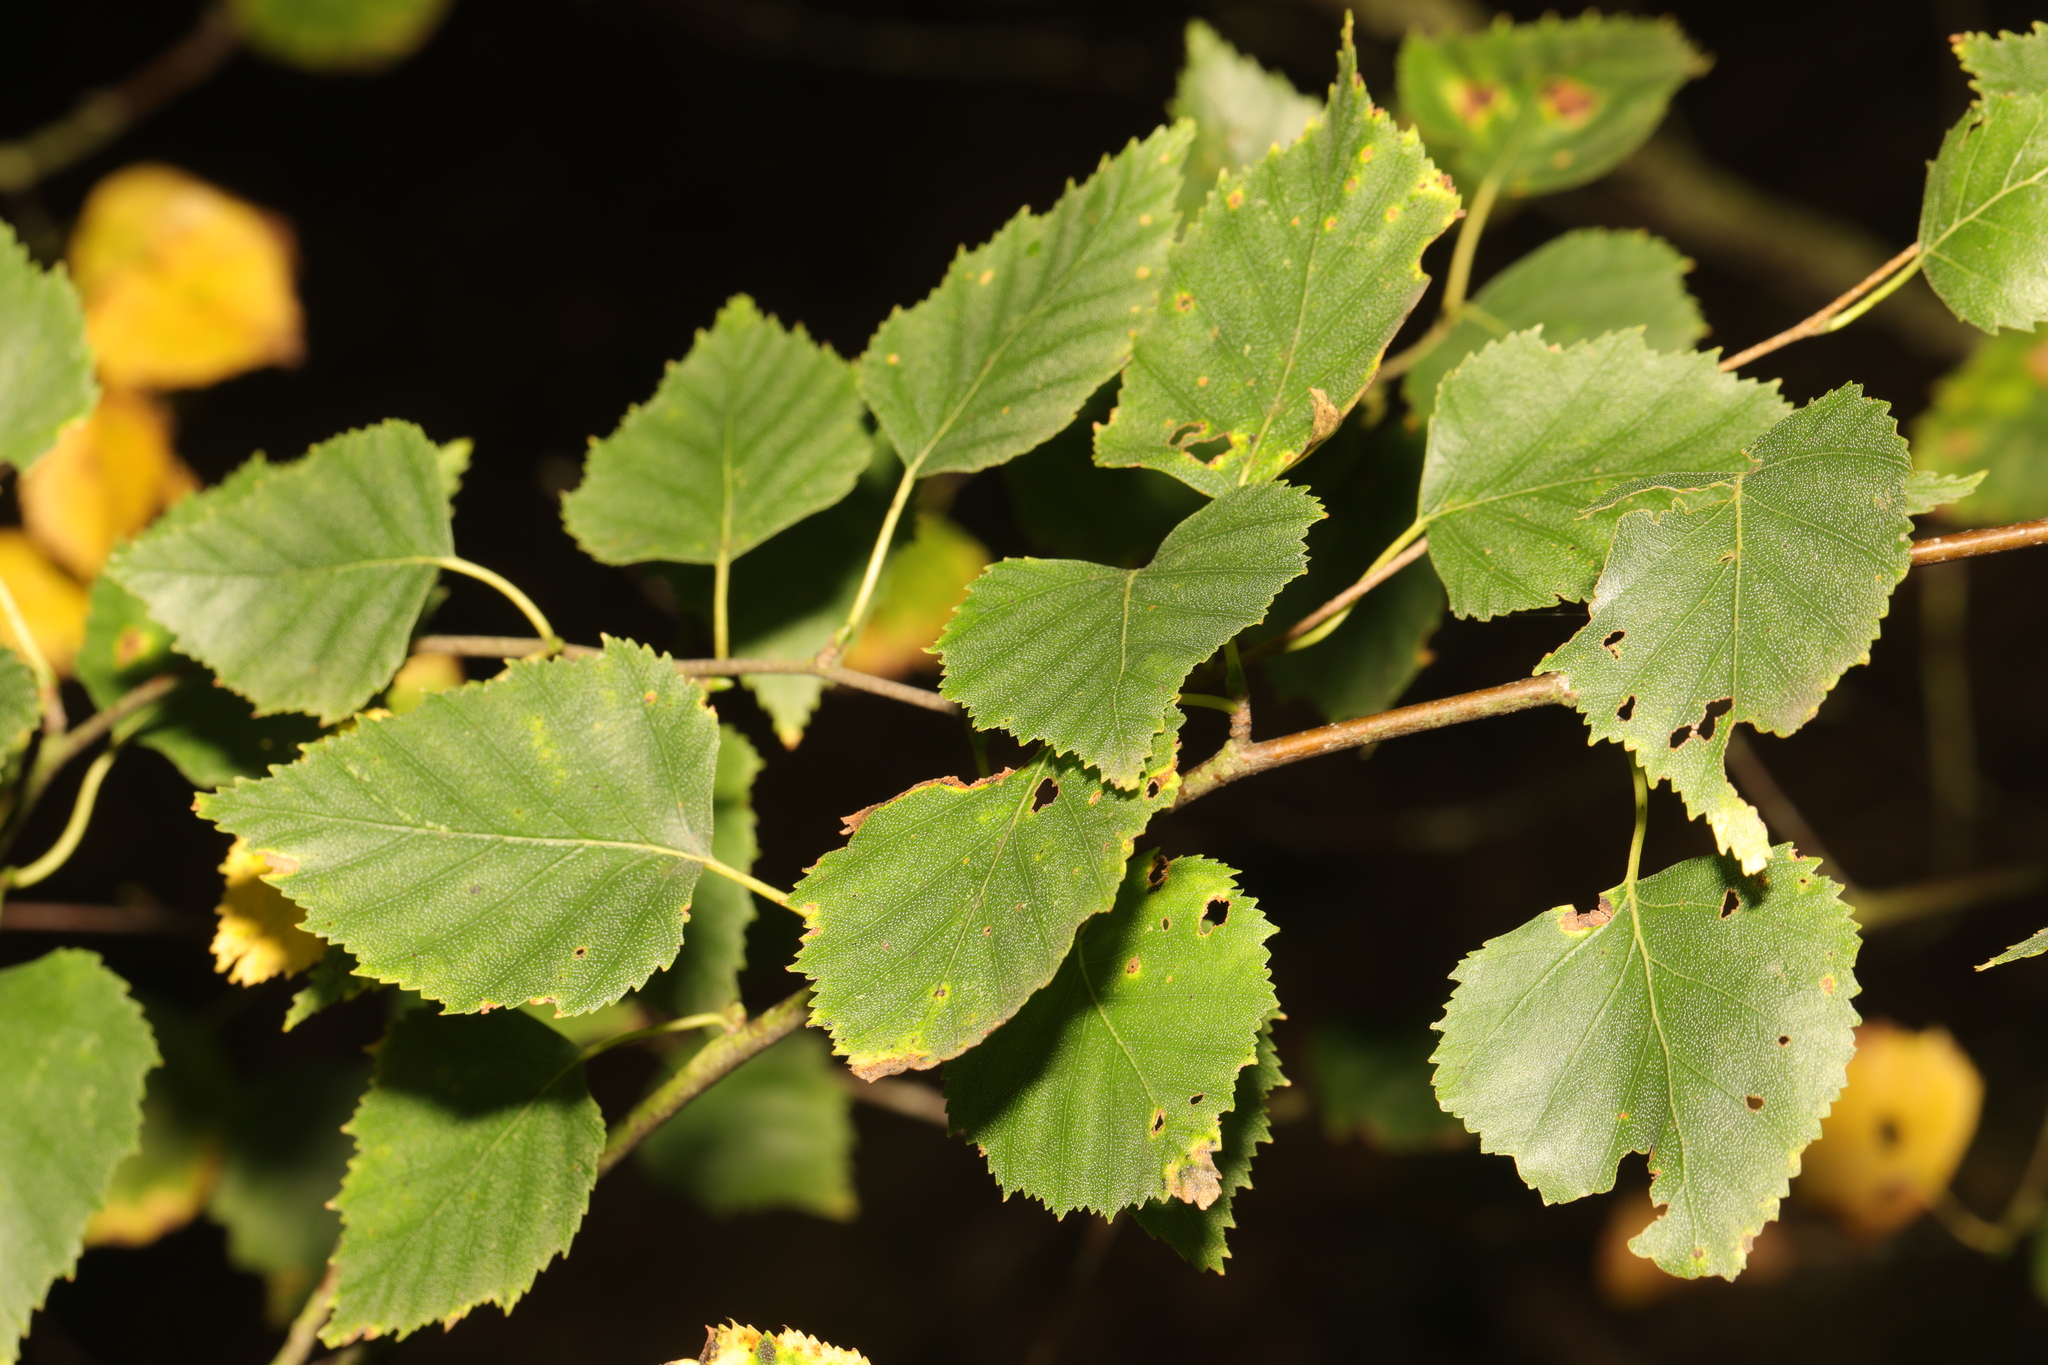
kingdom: Plantae
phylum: Tracheophyta
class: Magnoliopsida
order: Fagales
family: Betulaceae
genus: Betula
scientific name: Betula pendula
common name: Silver birch
